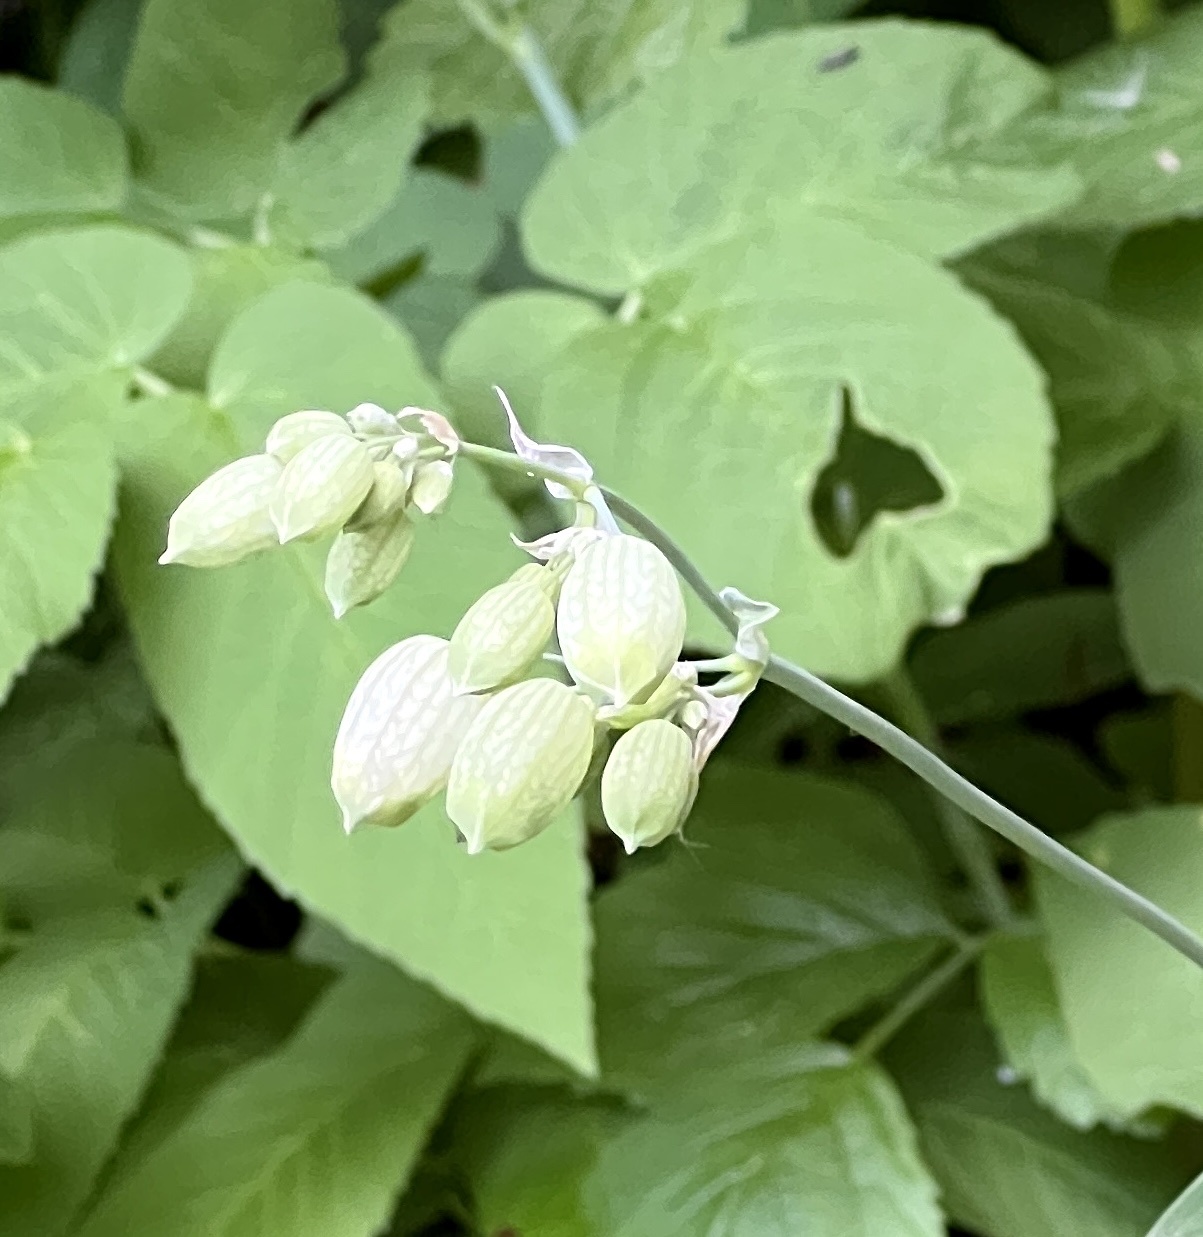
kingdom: Plantae
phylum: Tracheophyta
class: Magnoliopsida
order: Caryophyllales
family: Caryophyllaceae
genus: Silene
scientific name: Silene vulgaris
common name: Bladder campion
